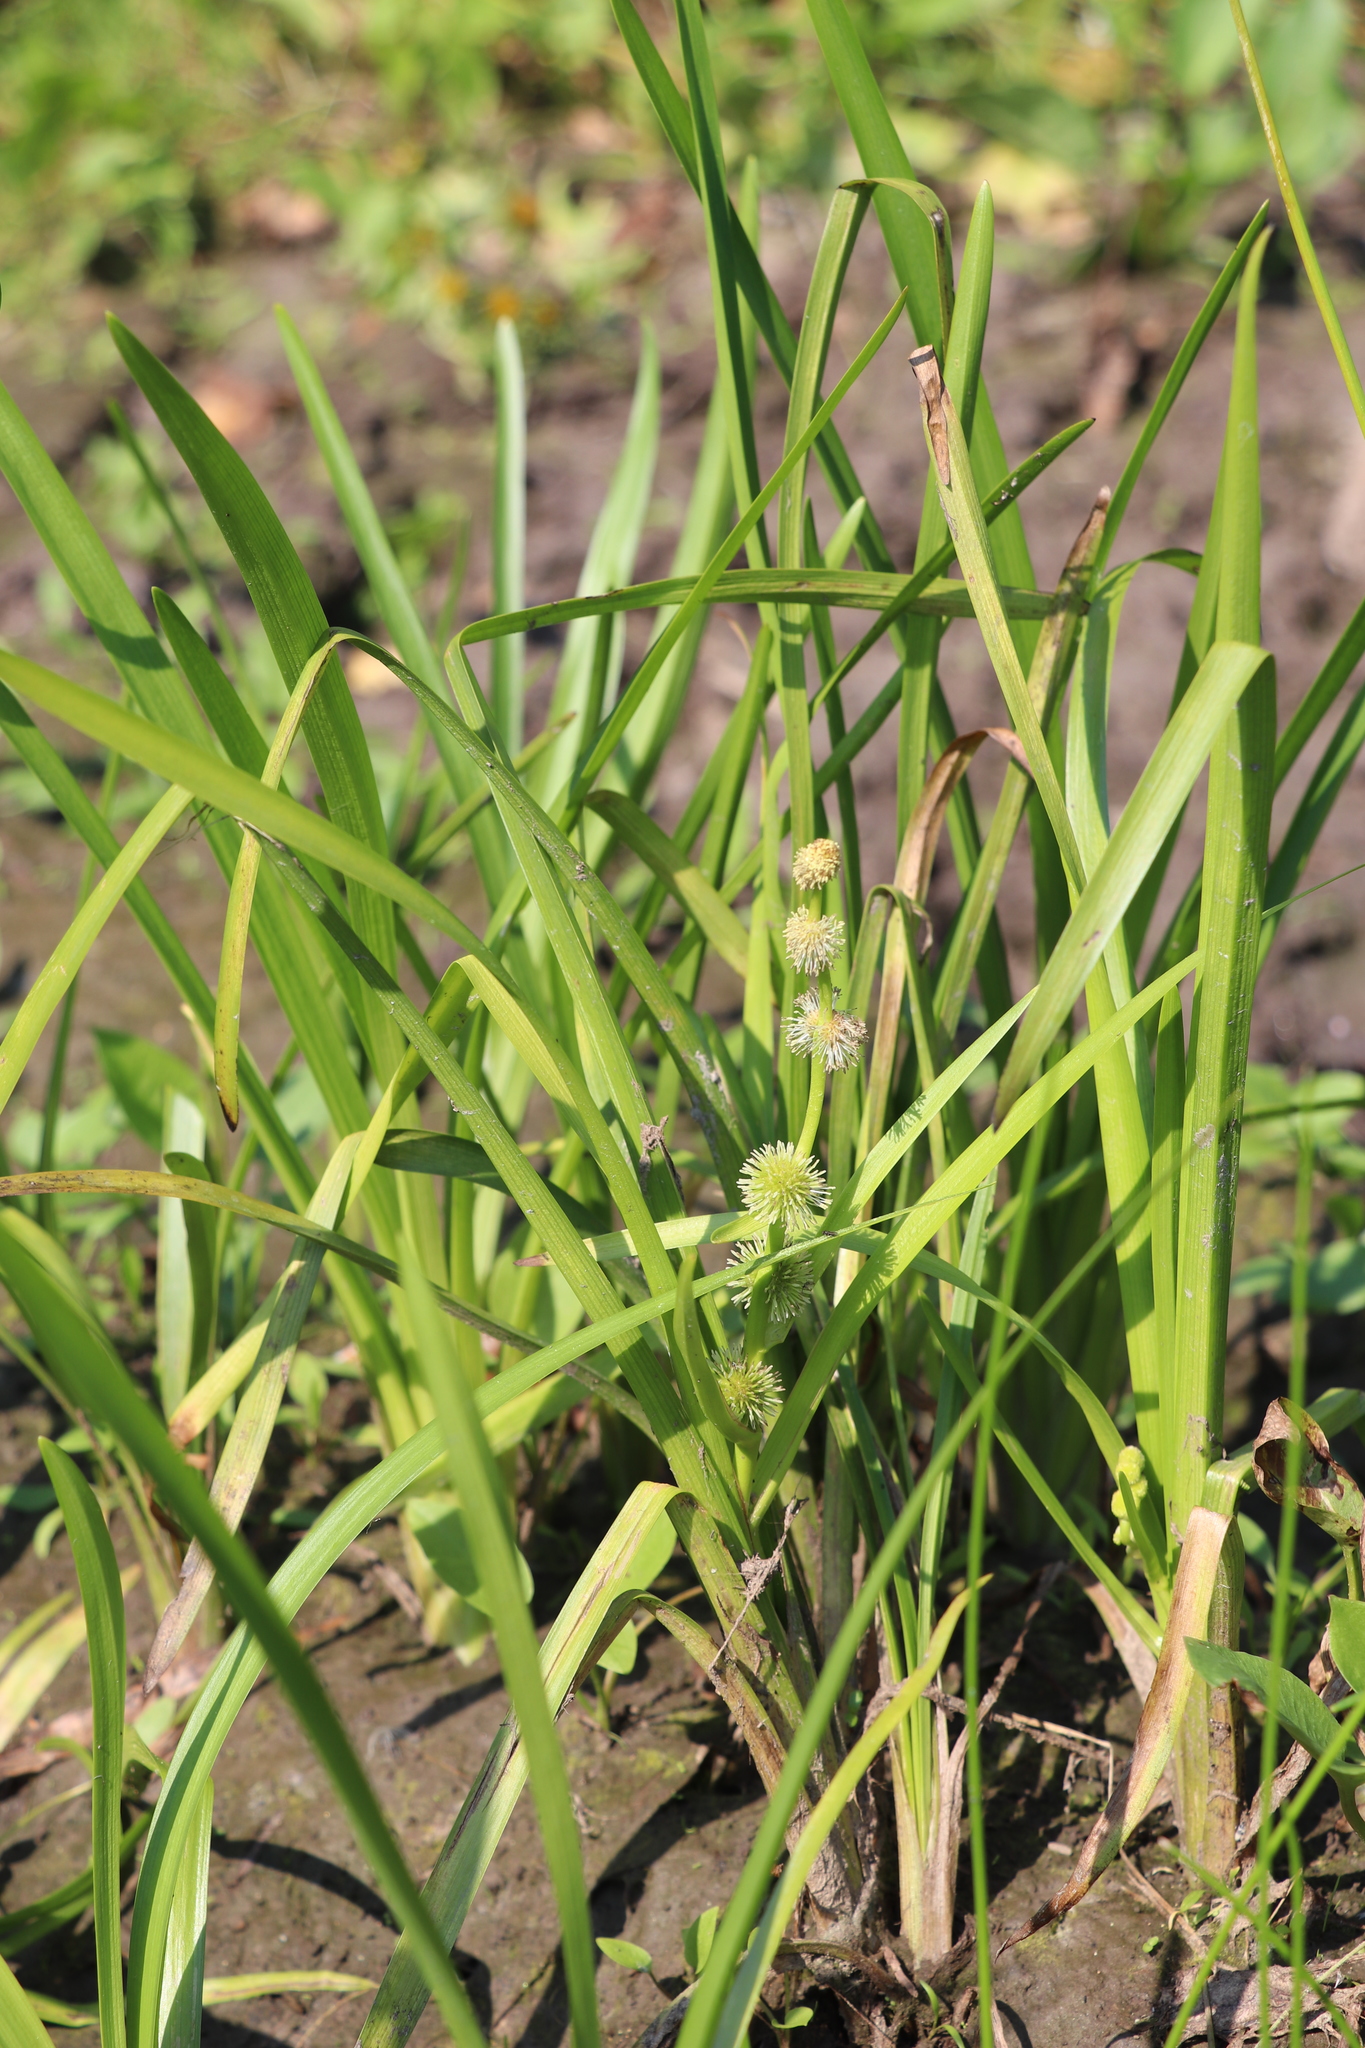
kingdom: Plantae
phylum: Tracheophyta
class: Liliopsida
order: Poales
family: Typhaceae
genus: Sparganium
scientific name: Sparganium emersum
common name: Unbranched bur-reed
